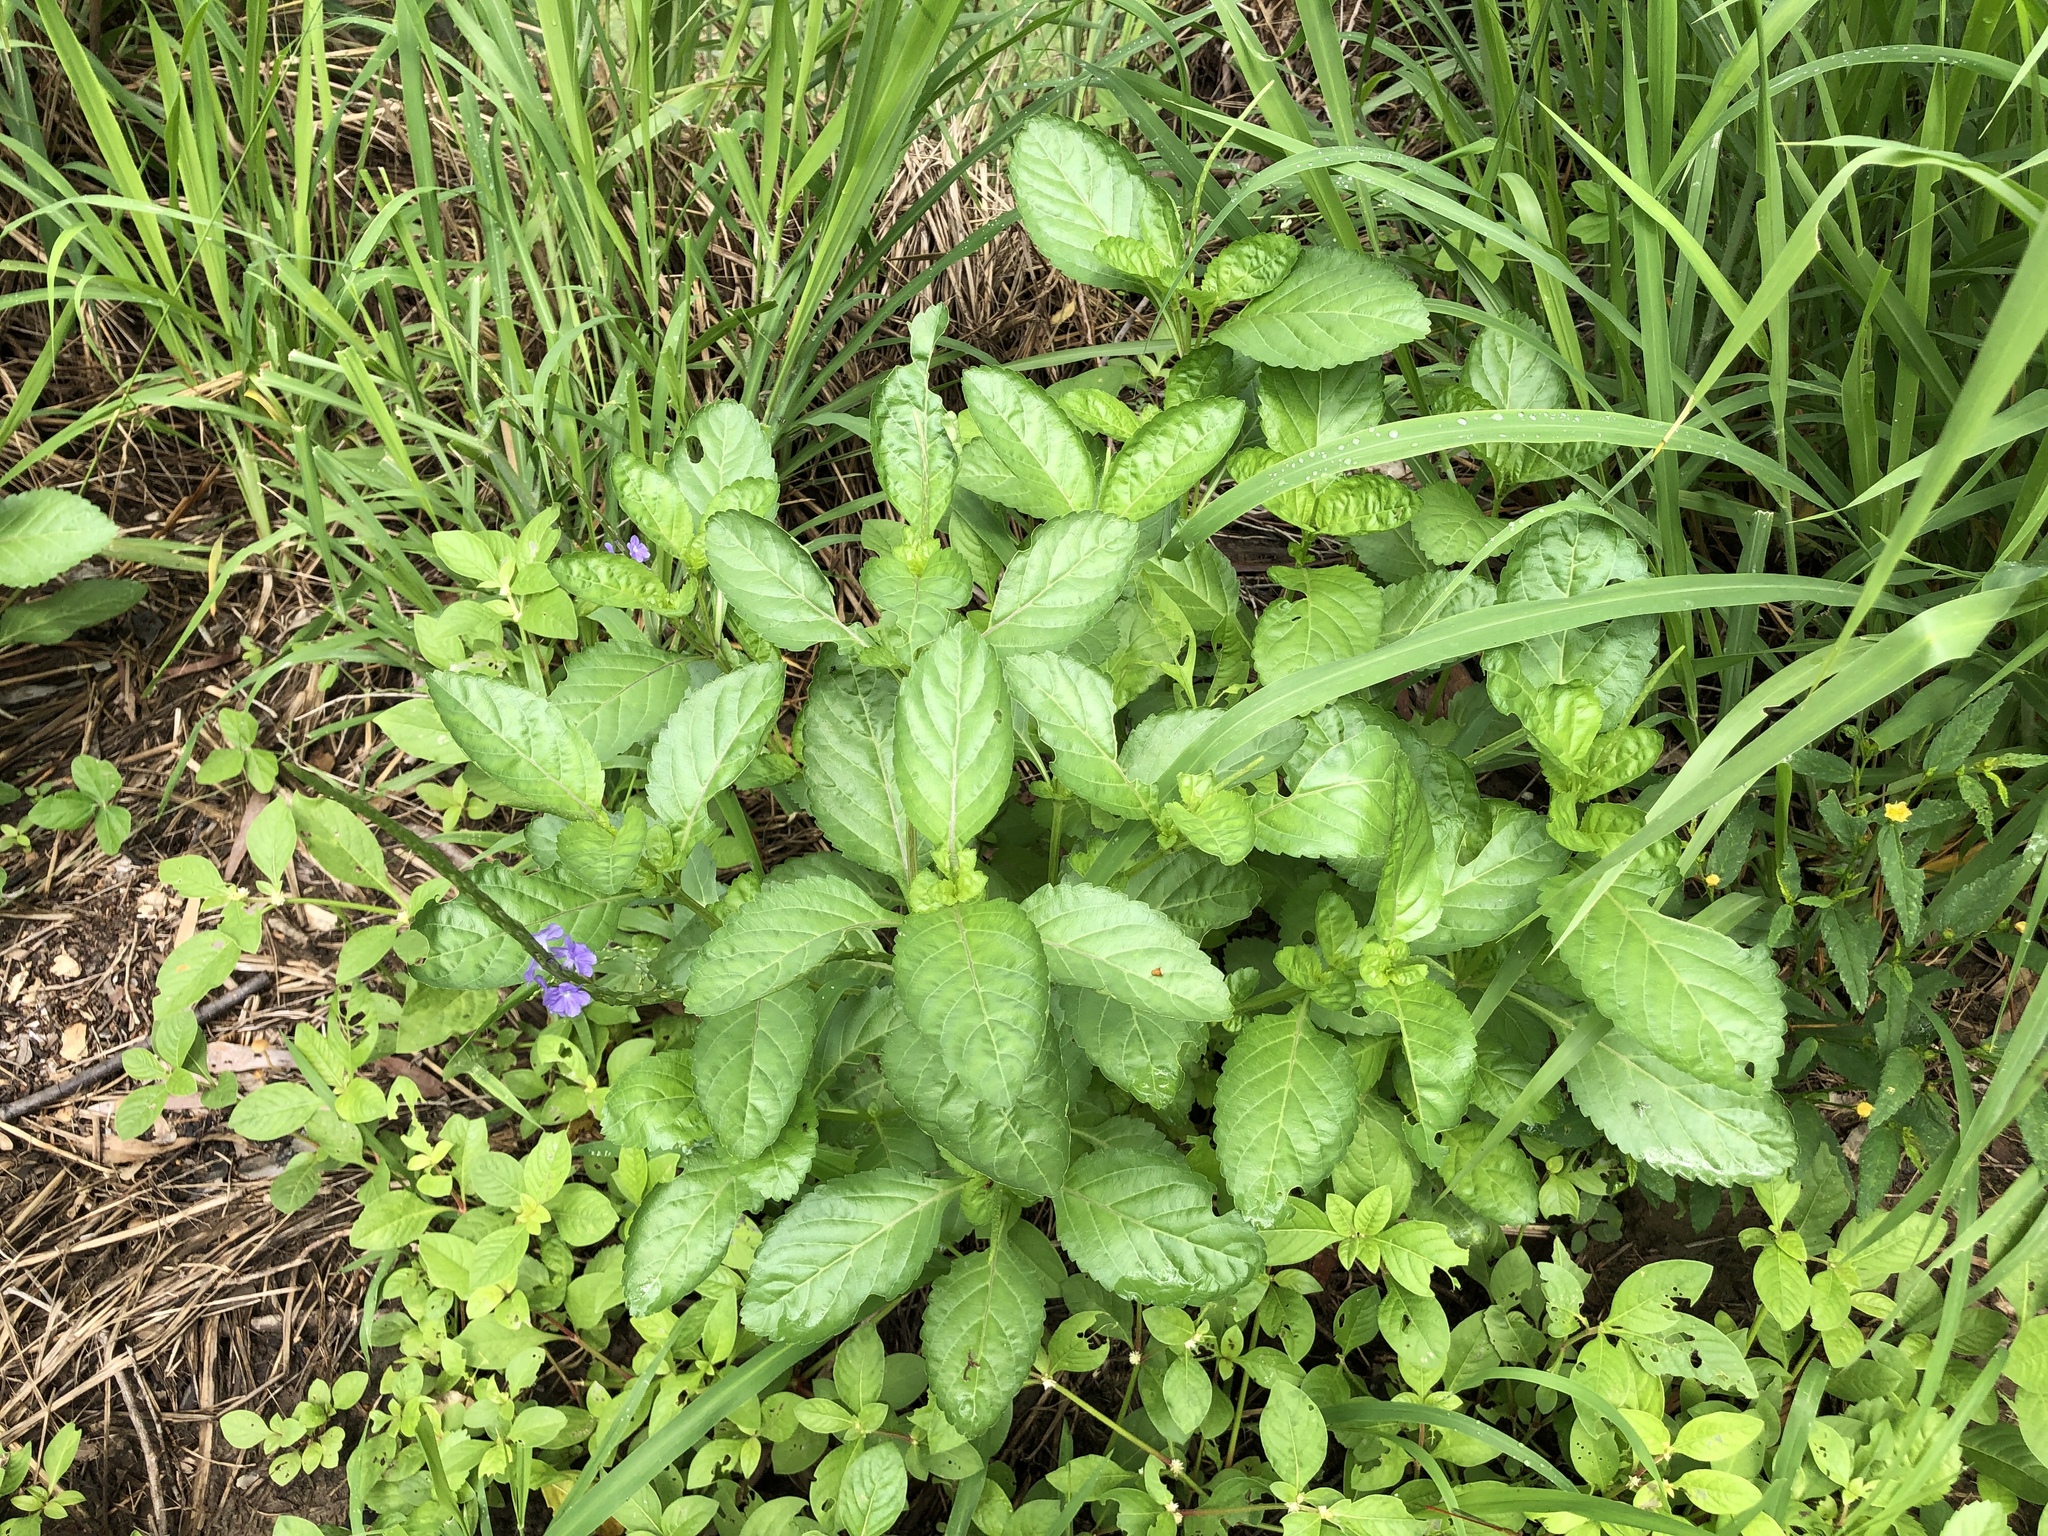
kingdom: Plantae
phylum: Tracheophyta
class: Magnoliopsida
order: Lamiales
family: Verbenaceae
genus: Stachytarpheta
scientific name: Stachytarpheta jamaicensis
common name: Light-blue snakeweed
